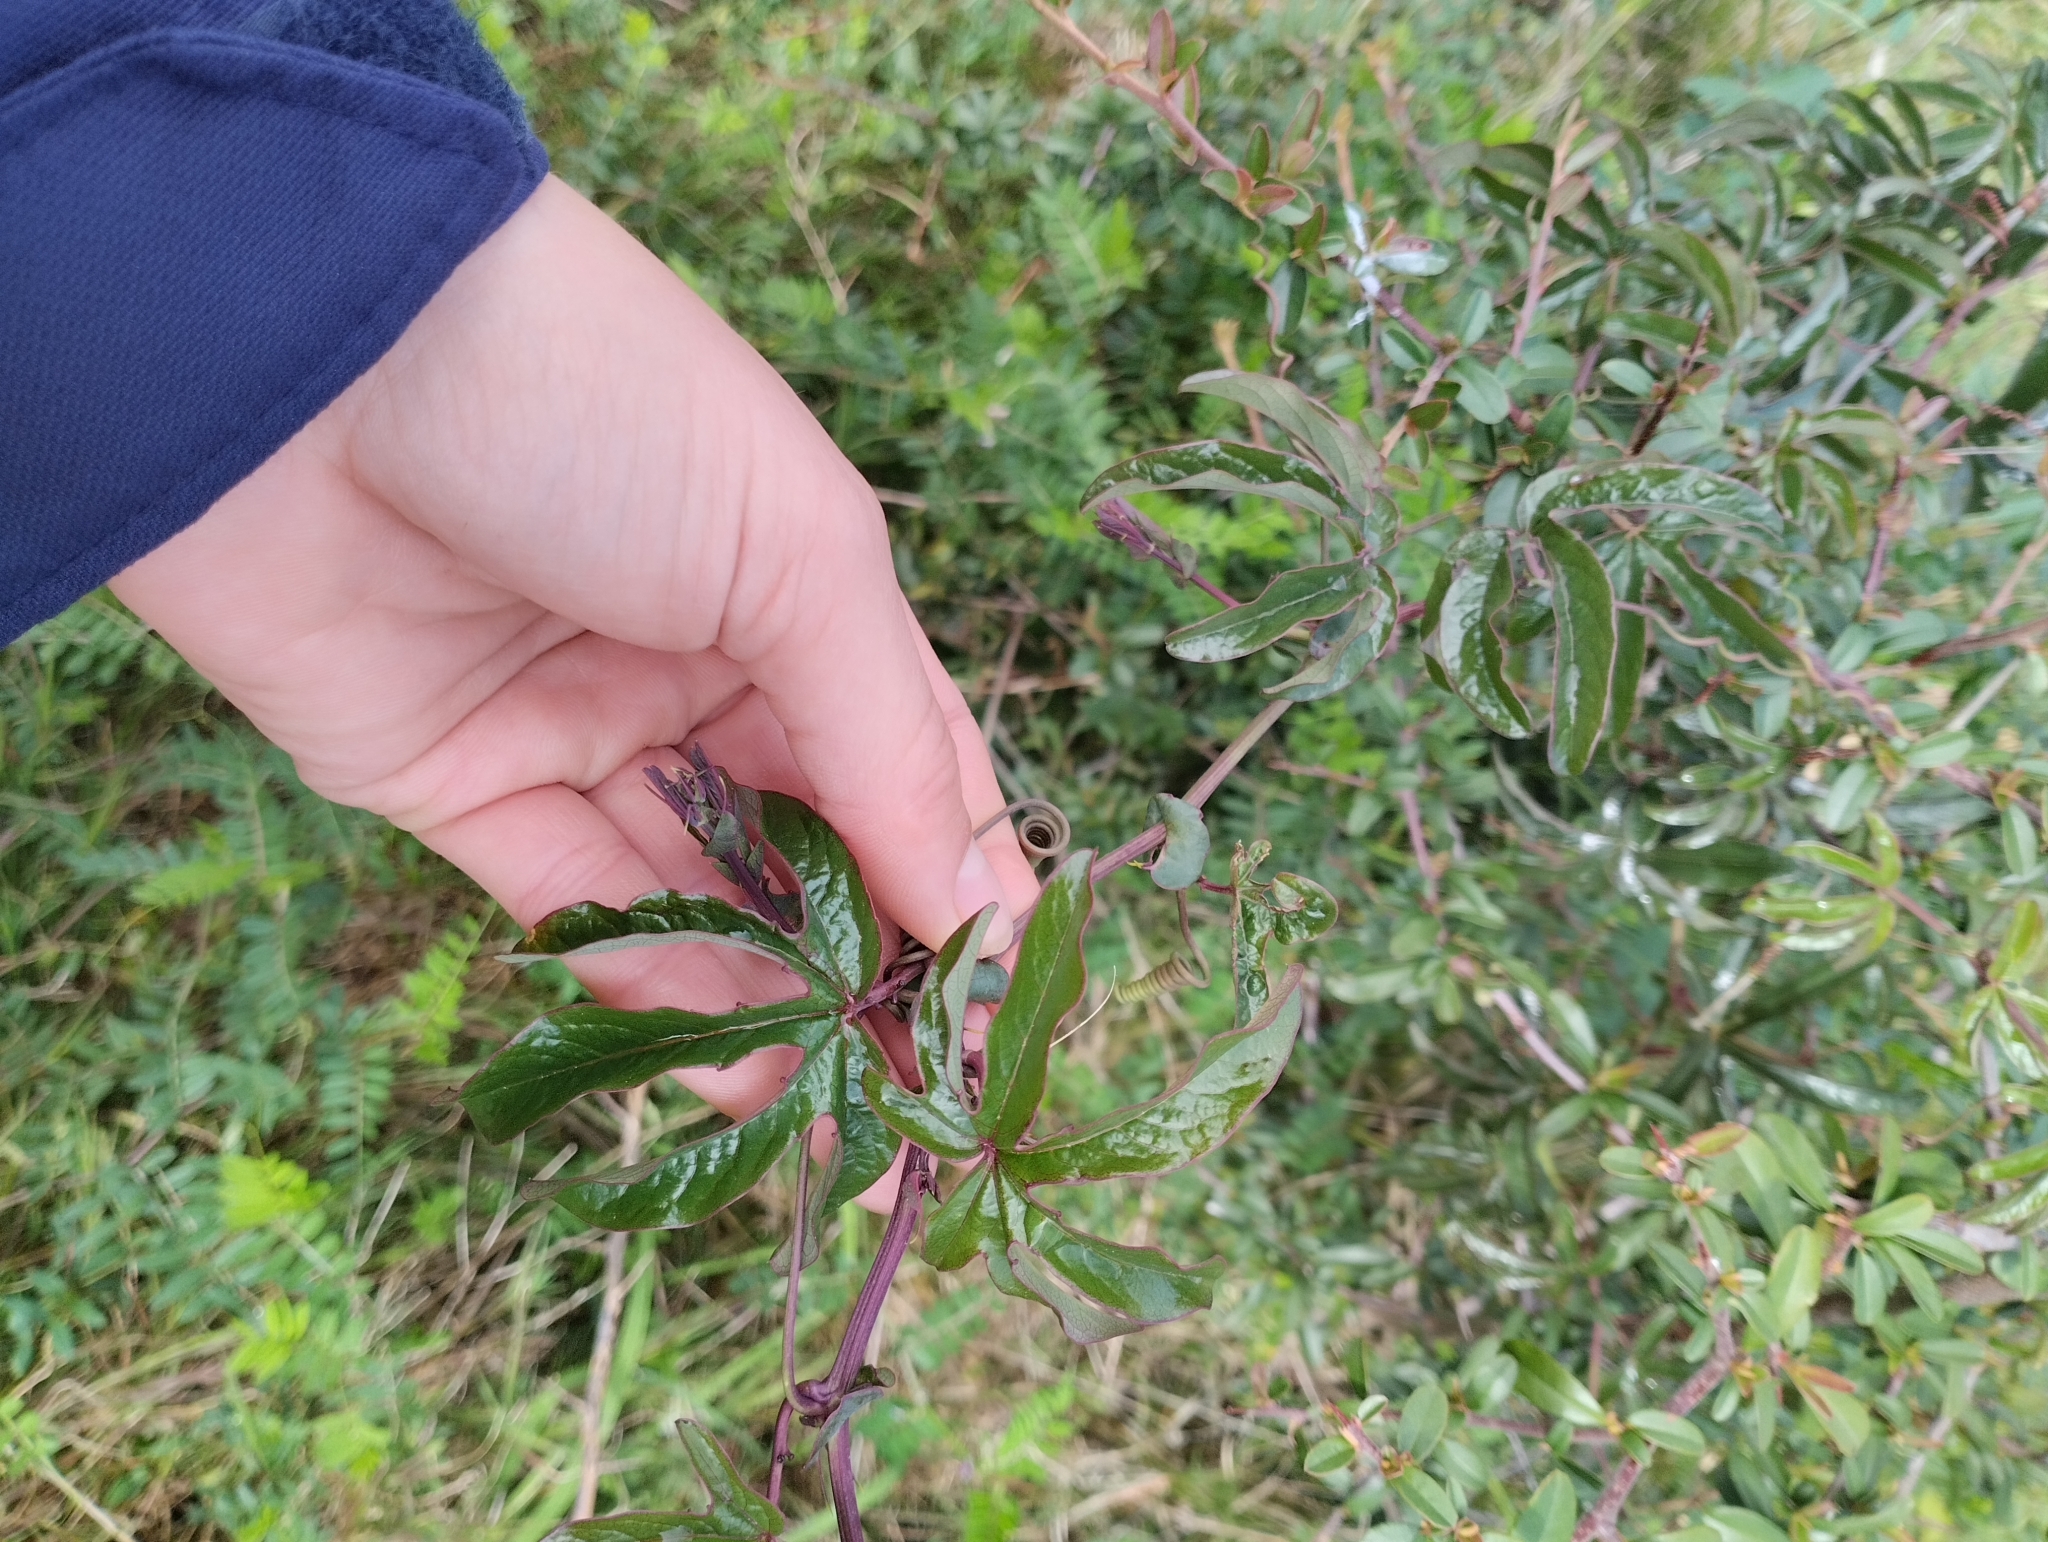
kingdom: Plantae
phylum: Tracheophyta
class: Magnoliopsida
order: Malpighiales
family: Passifloraceae
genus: Passiflora
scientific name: Passiflora caerulea
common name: Blue passionflower
